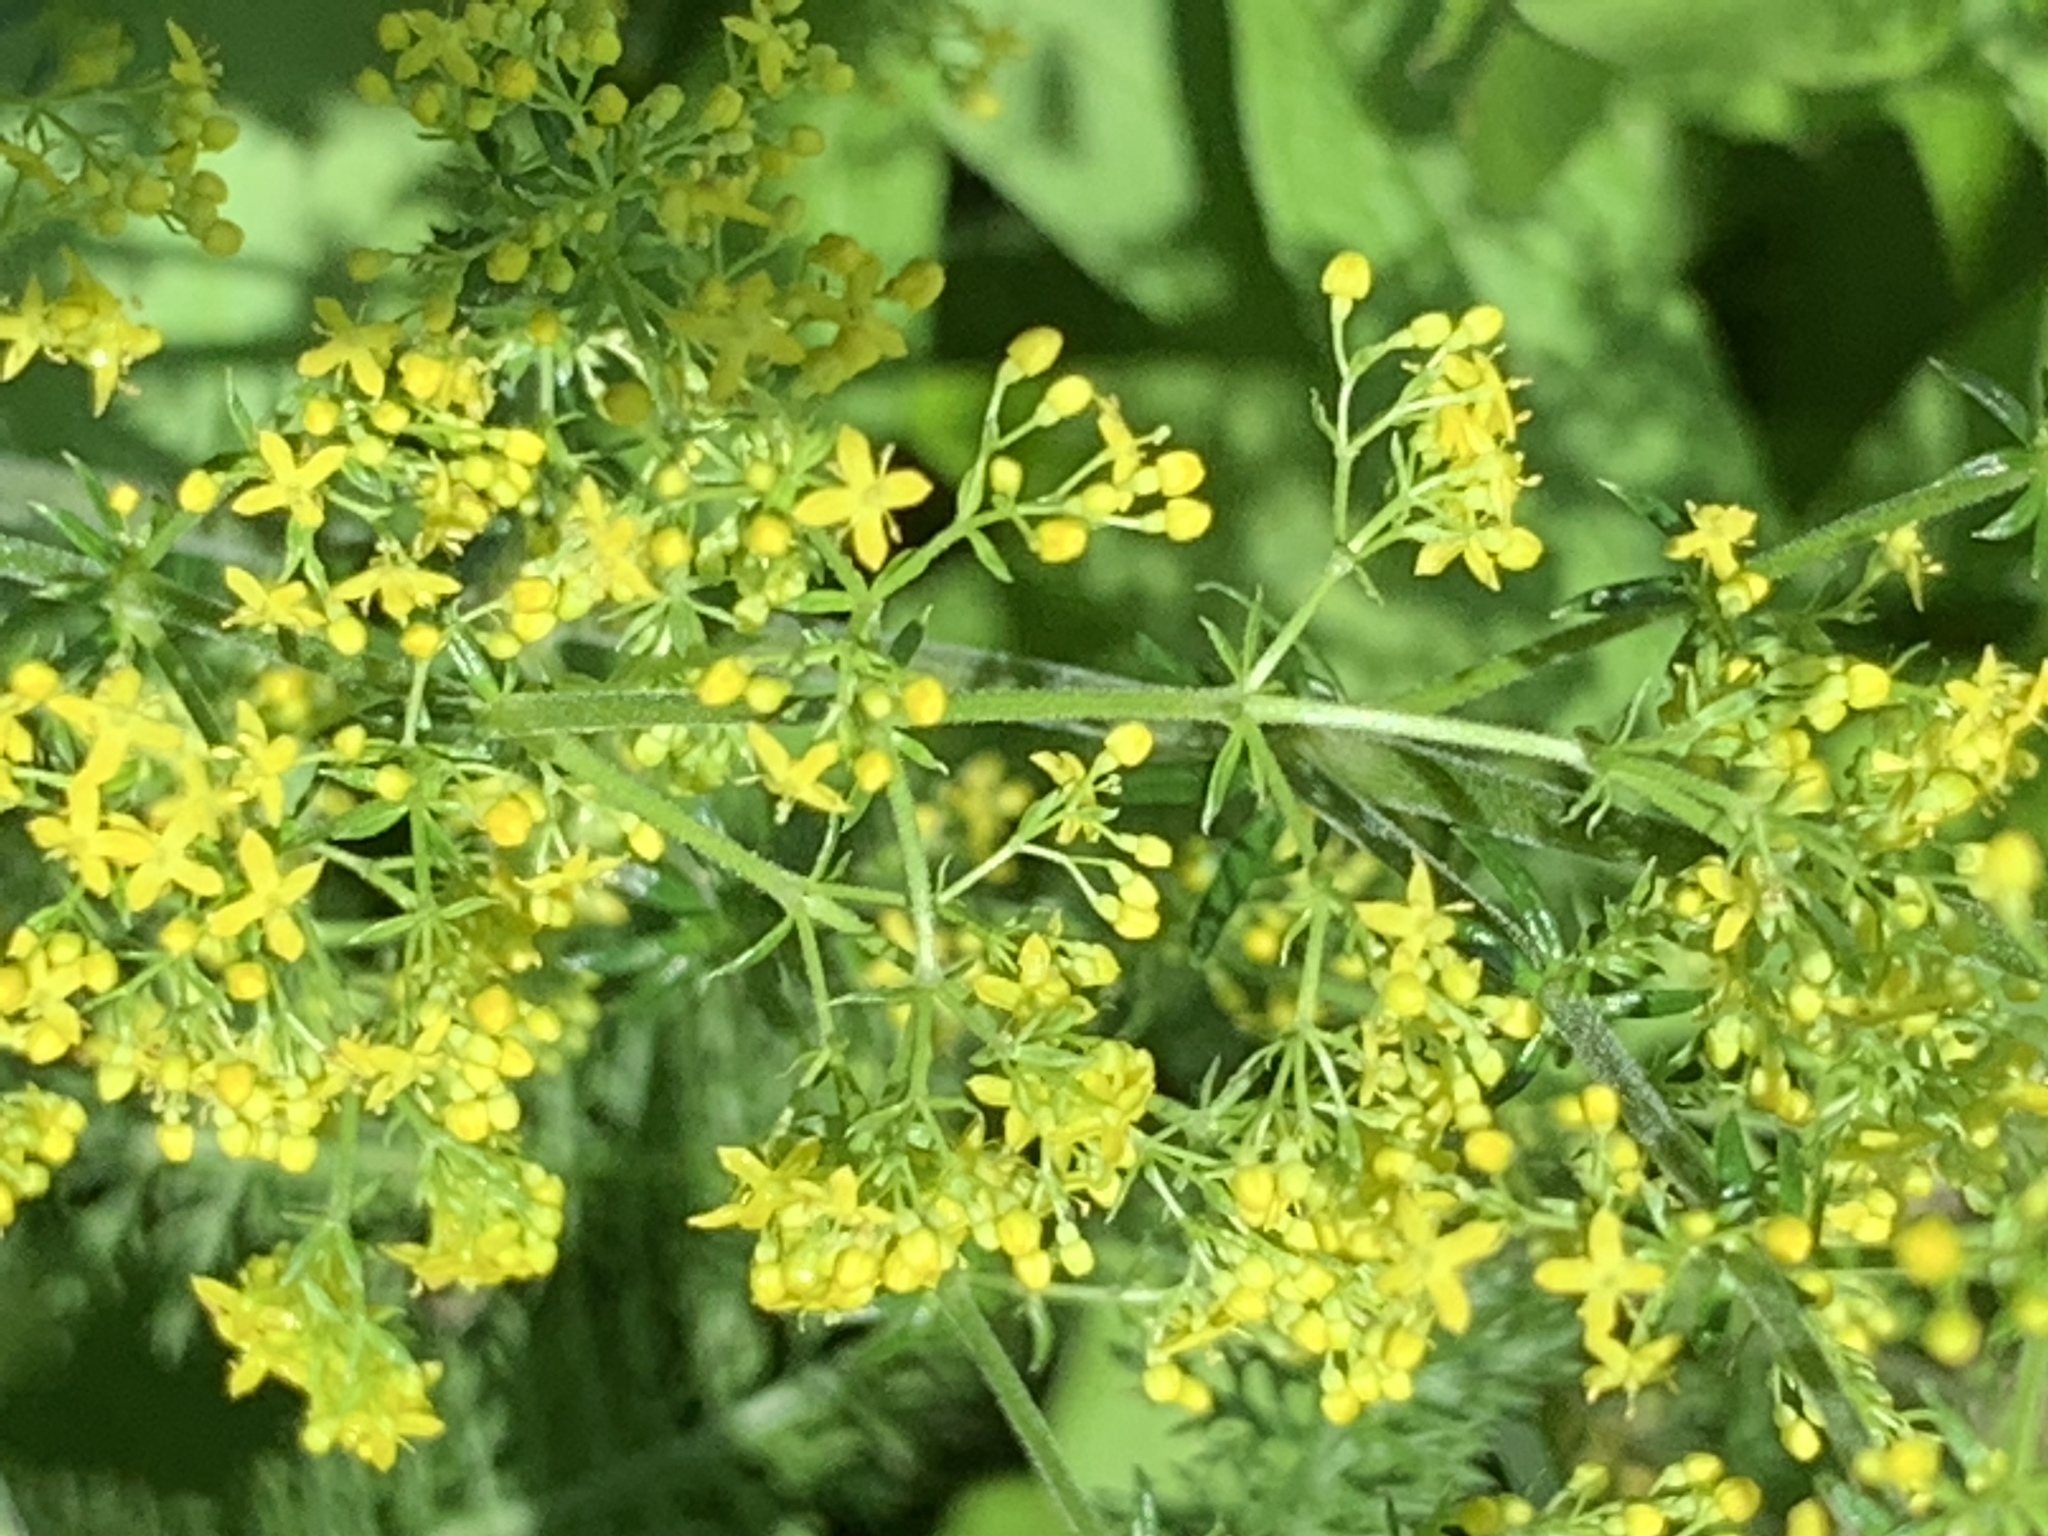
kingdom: Plantae
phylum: Tracheophyta
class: Magnoliopsida
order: Gentianales
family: Rubiaceae
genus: Galium
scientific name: Galium verum
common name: Lady's bedstraw
